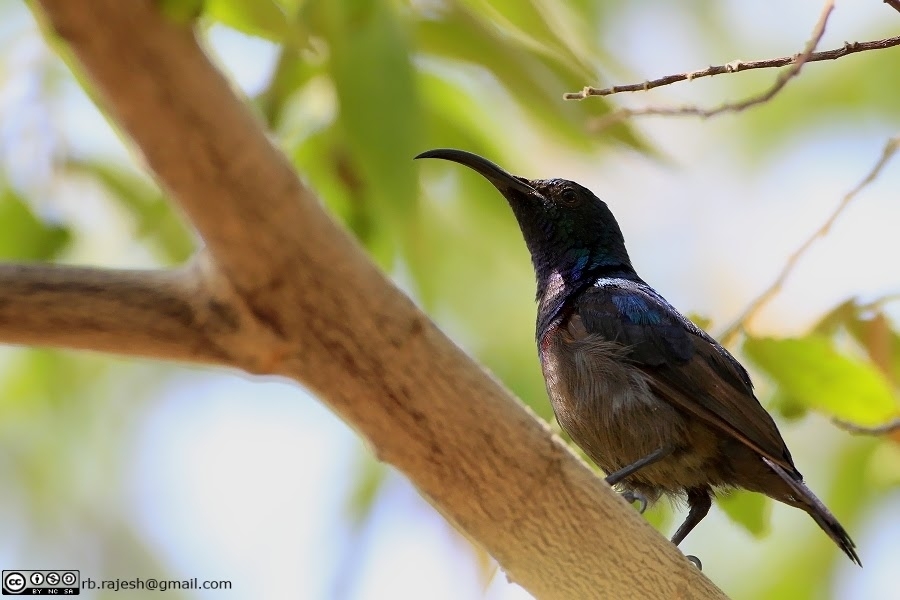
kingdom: Animalia
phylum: Chordata
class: Aves
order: Passeriformes
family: Nectariniidae
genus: Cinnyris
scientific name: Cinnyris lotenius
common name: Loten's sunbird
